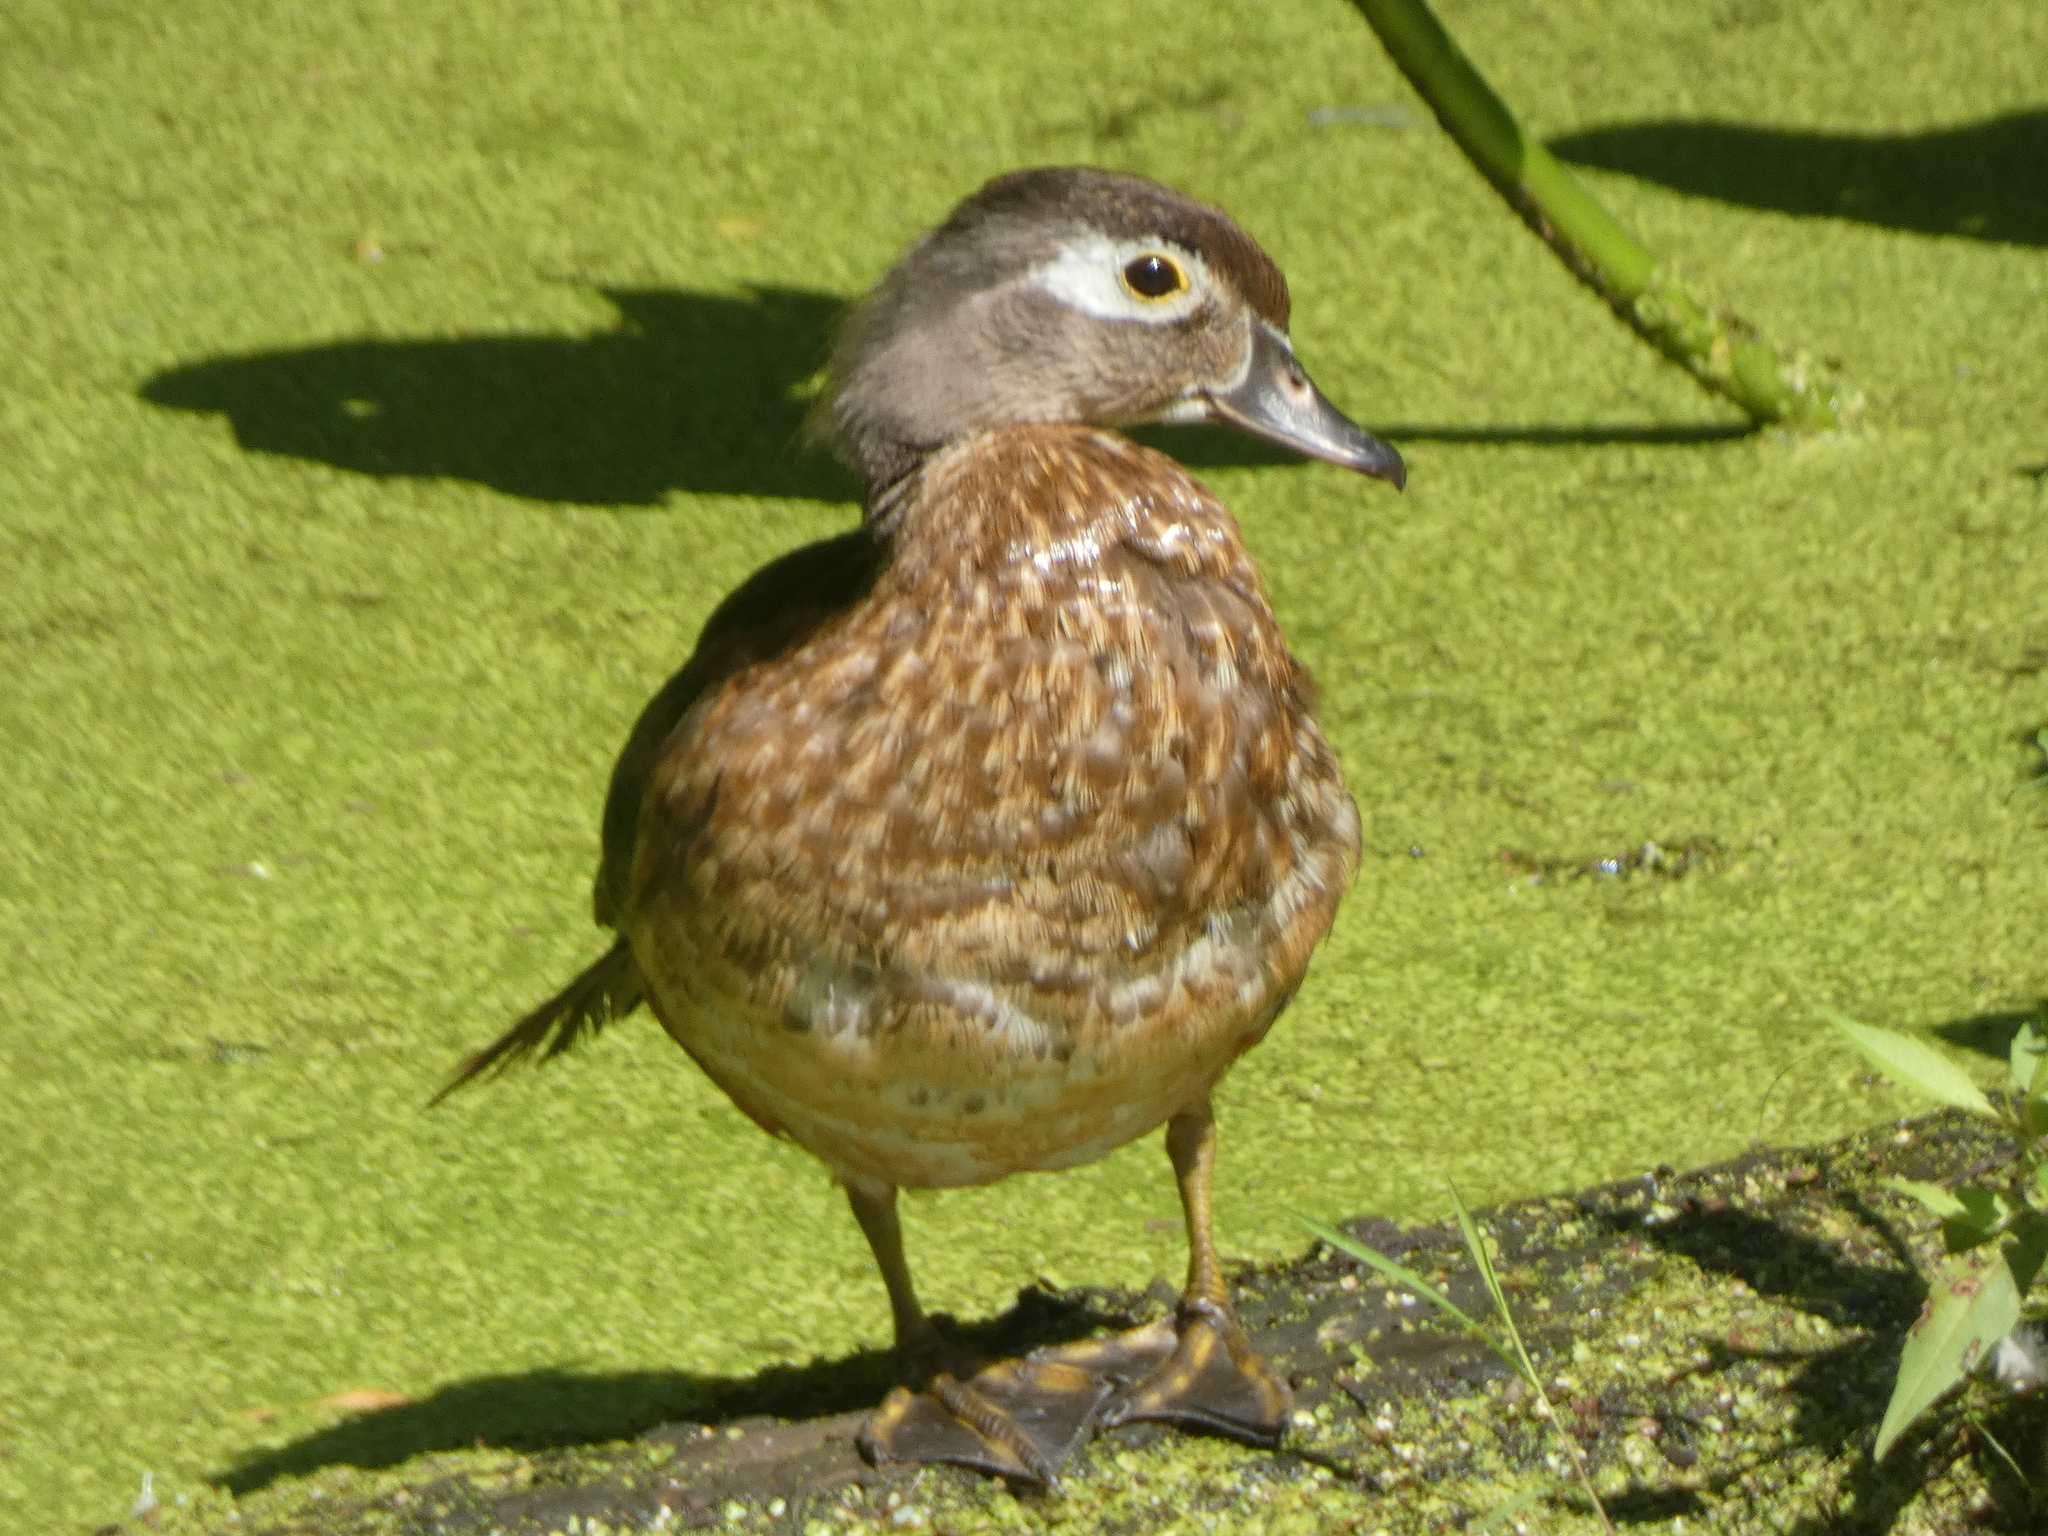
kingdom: Animalia
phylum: Chordata
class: Aves
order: Anseriformes
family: Anatidae
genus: Aix
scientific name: Aix sponsa
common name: Wood duck
